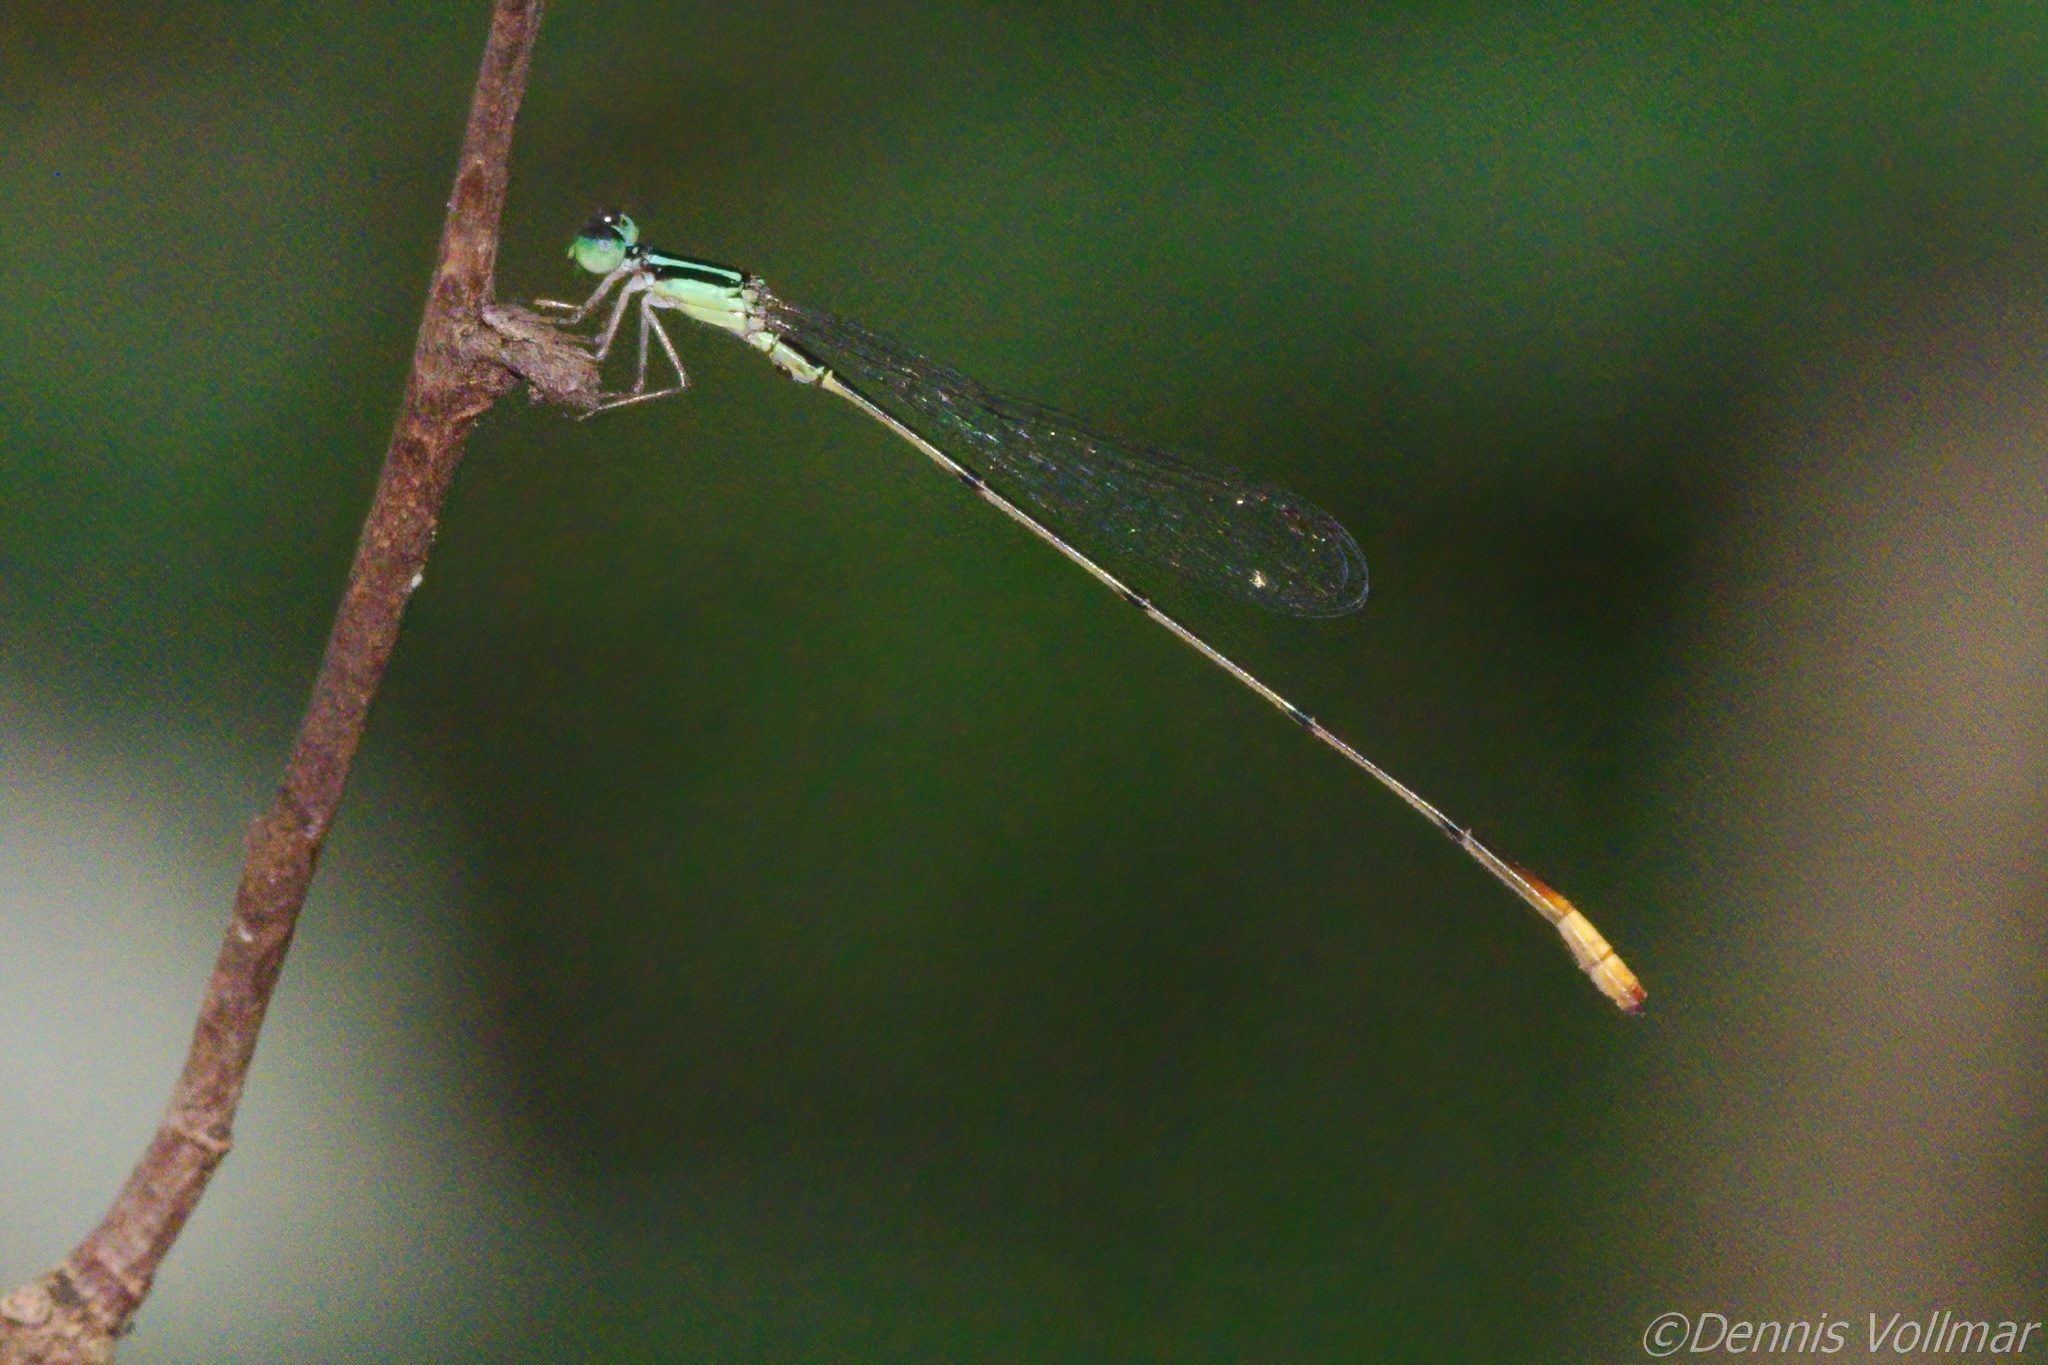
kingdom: Animalia
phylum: Arthropoda
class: Insecta
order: Odonata
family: Coenagrionidae
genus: Leptobasis
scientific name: Leptobasis lucifer
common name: Lucifer swampdamsel
